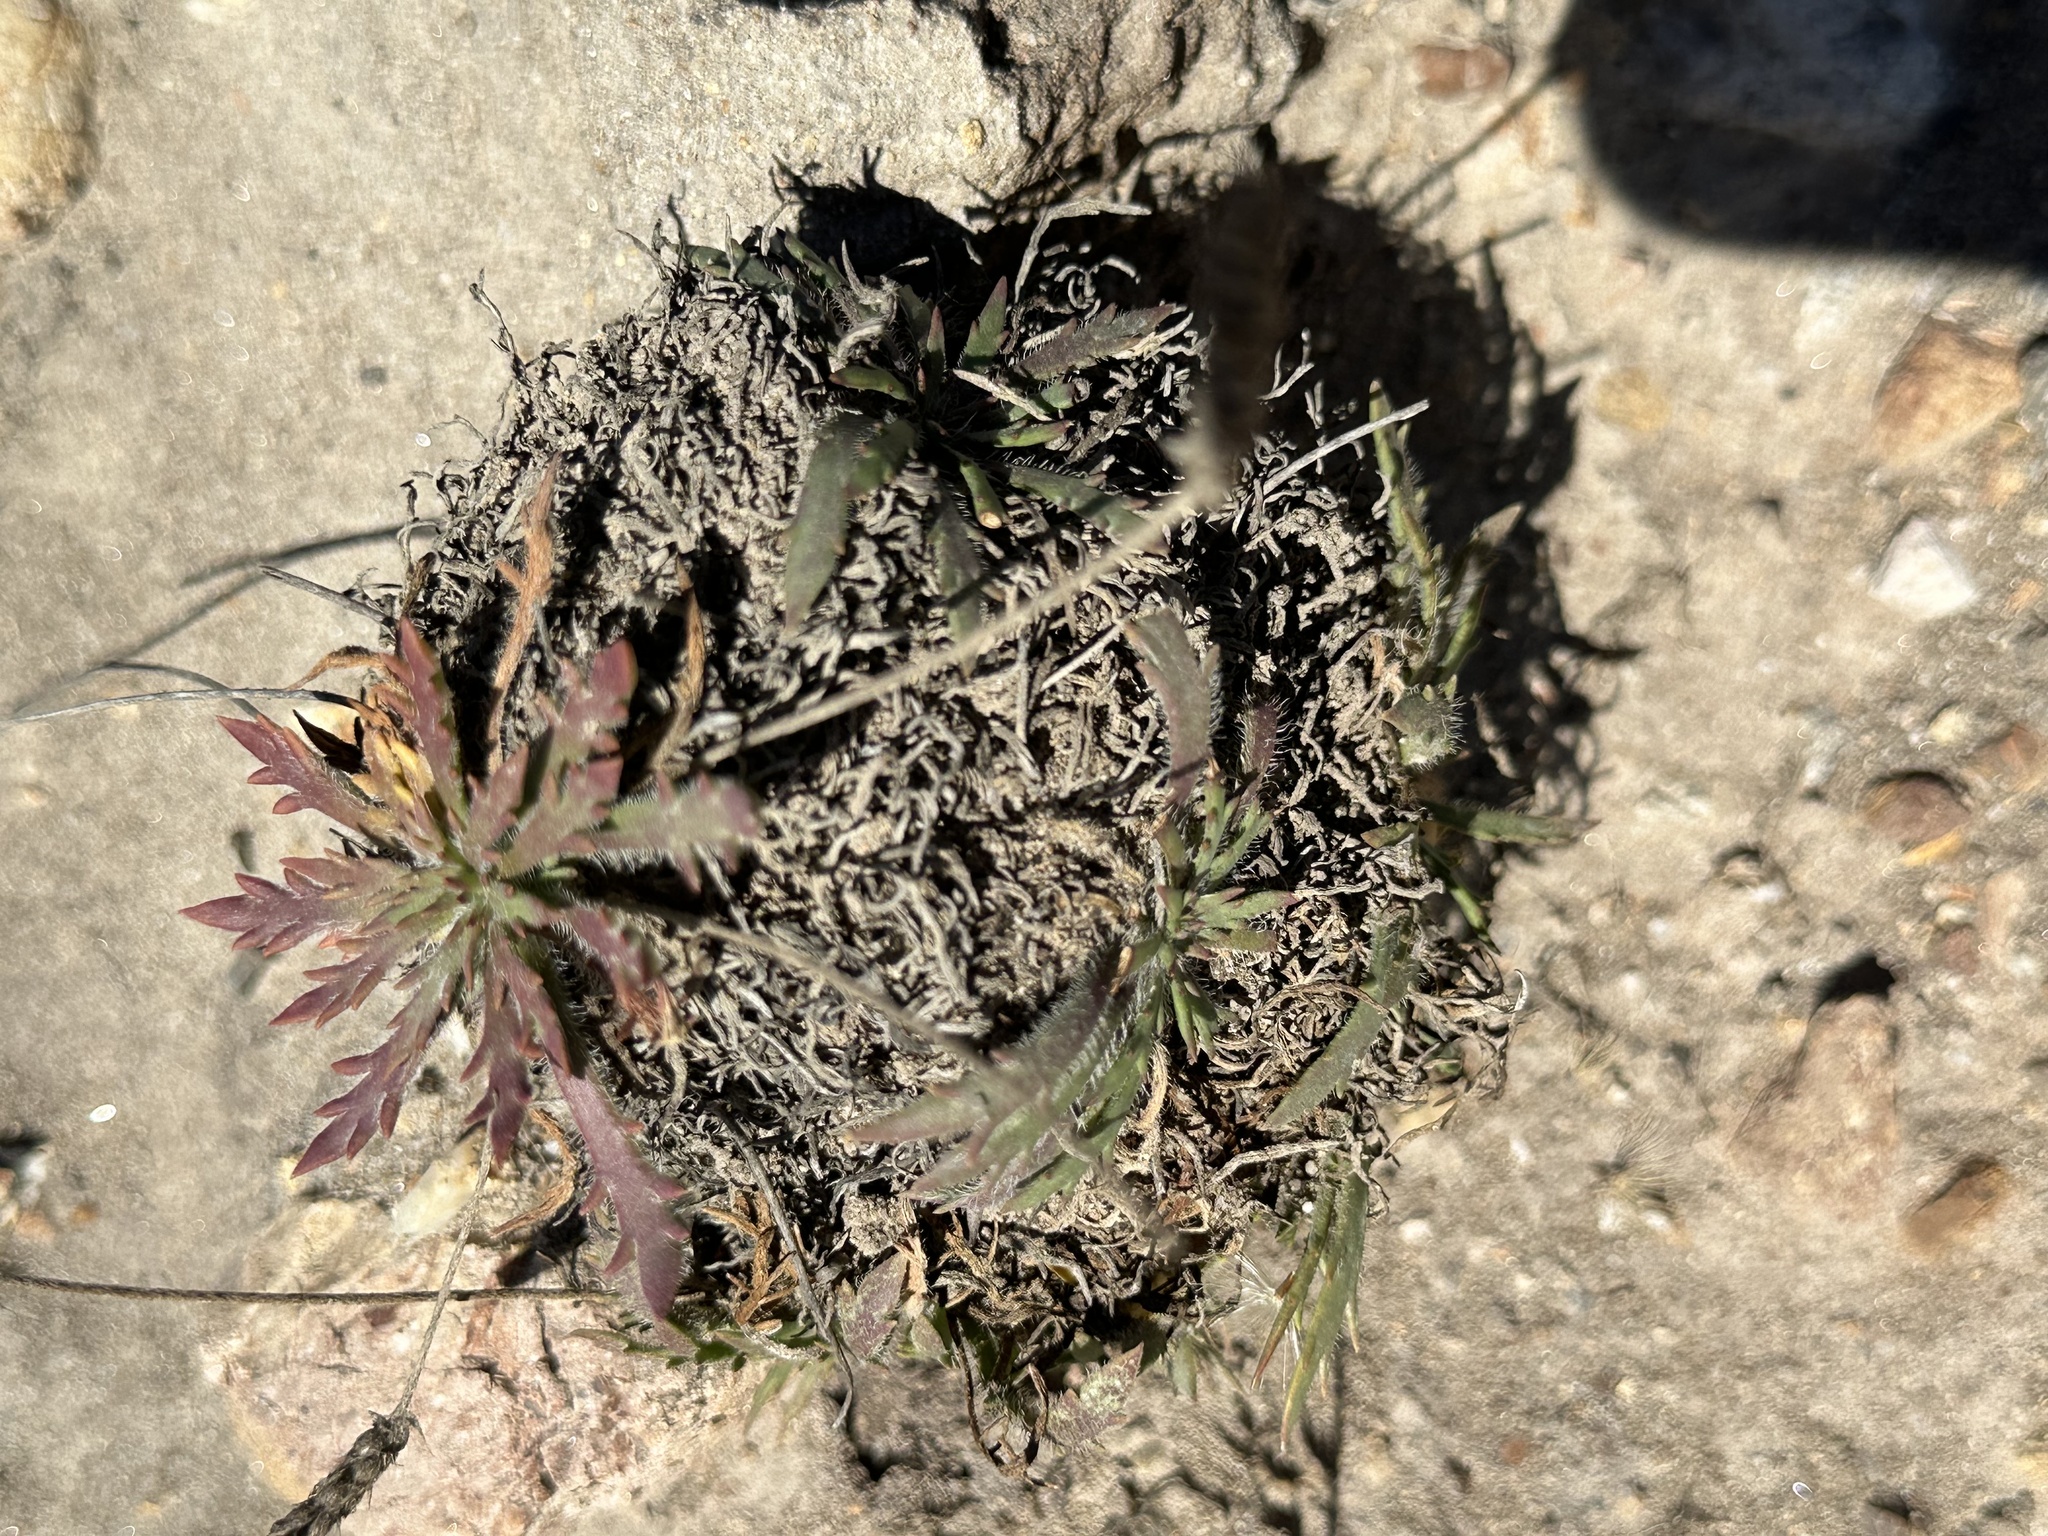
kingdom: Plantae
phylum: Tracheophyta
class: Magnoliopsida
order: Lamiales
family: Plantaginaceae
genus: Plantago
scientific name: Plantago coronopus
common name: Buck's-horn plantain
